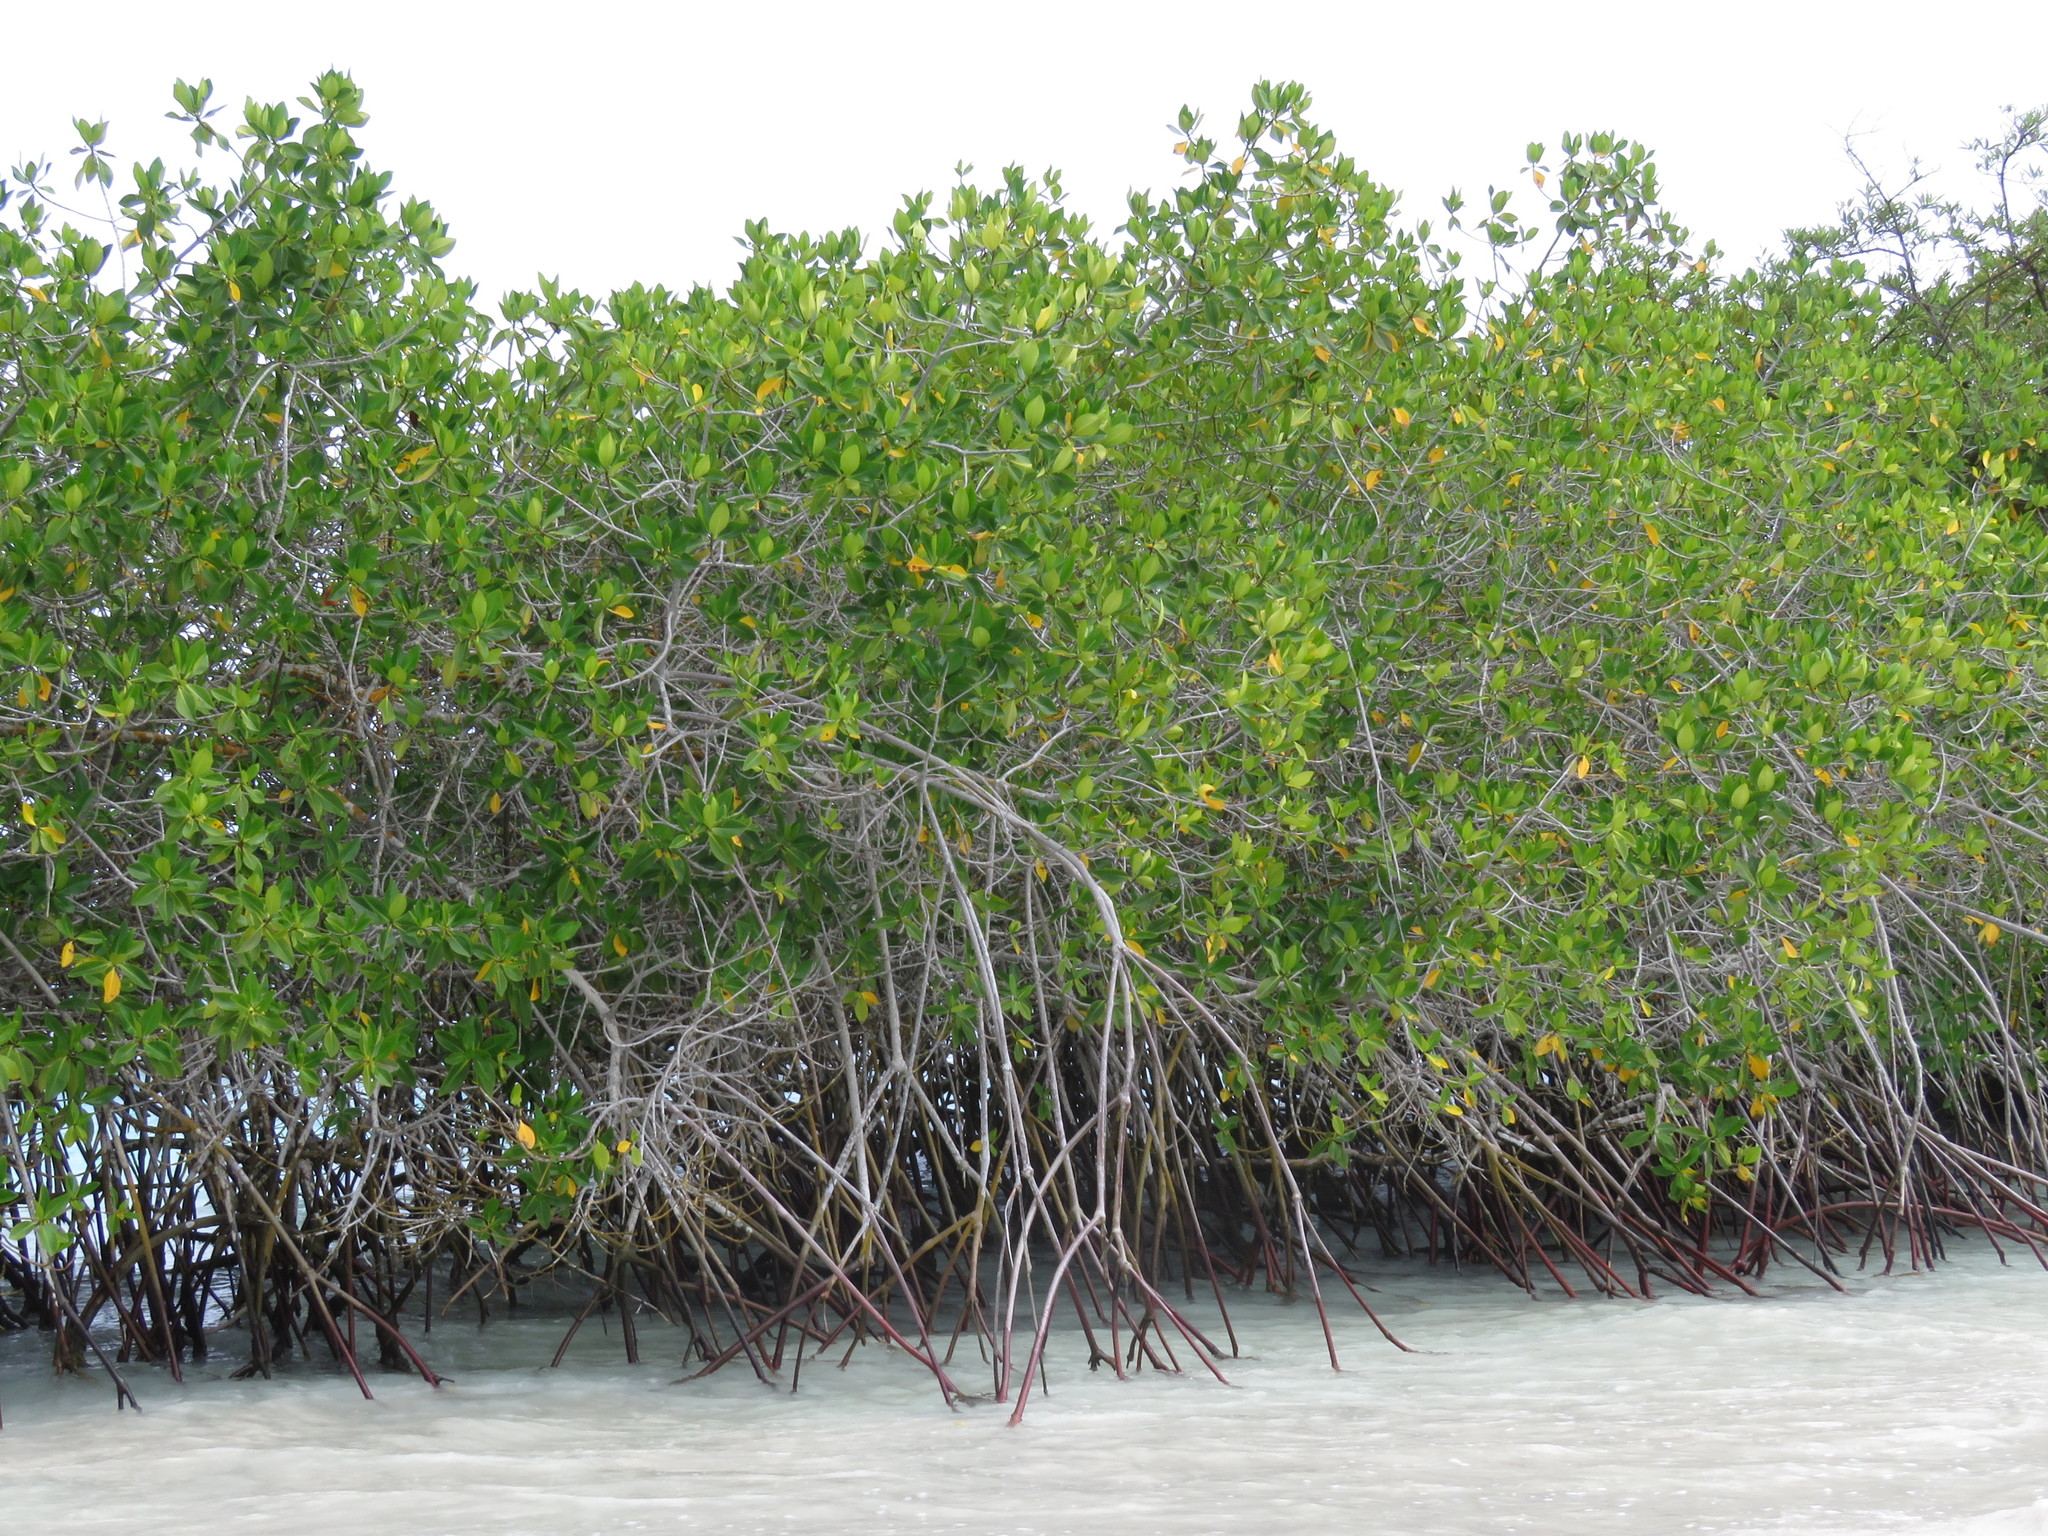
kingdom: Plantae
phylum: Tracheophyta
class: Magnoliopsida
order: Malpighiales
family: Rhizophoraceae
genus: Rhizophora
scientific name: Rhizophora mangle
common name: Red mangrove
